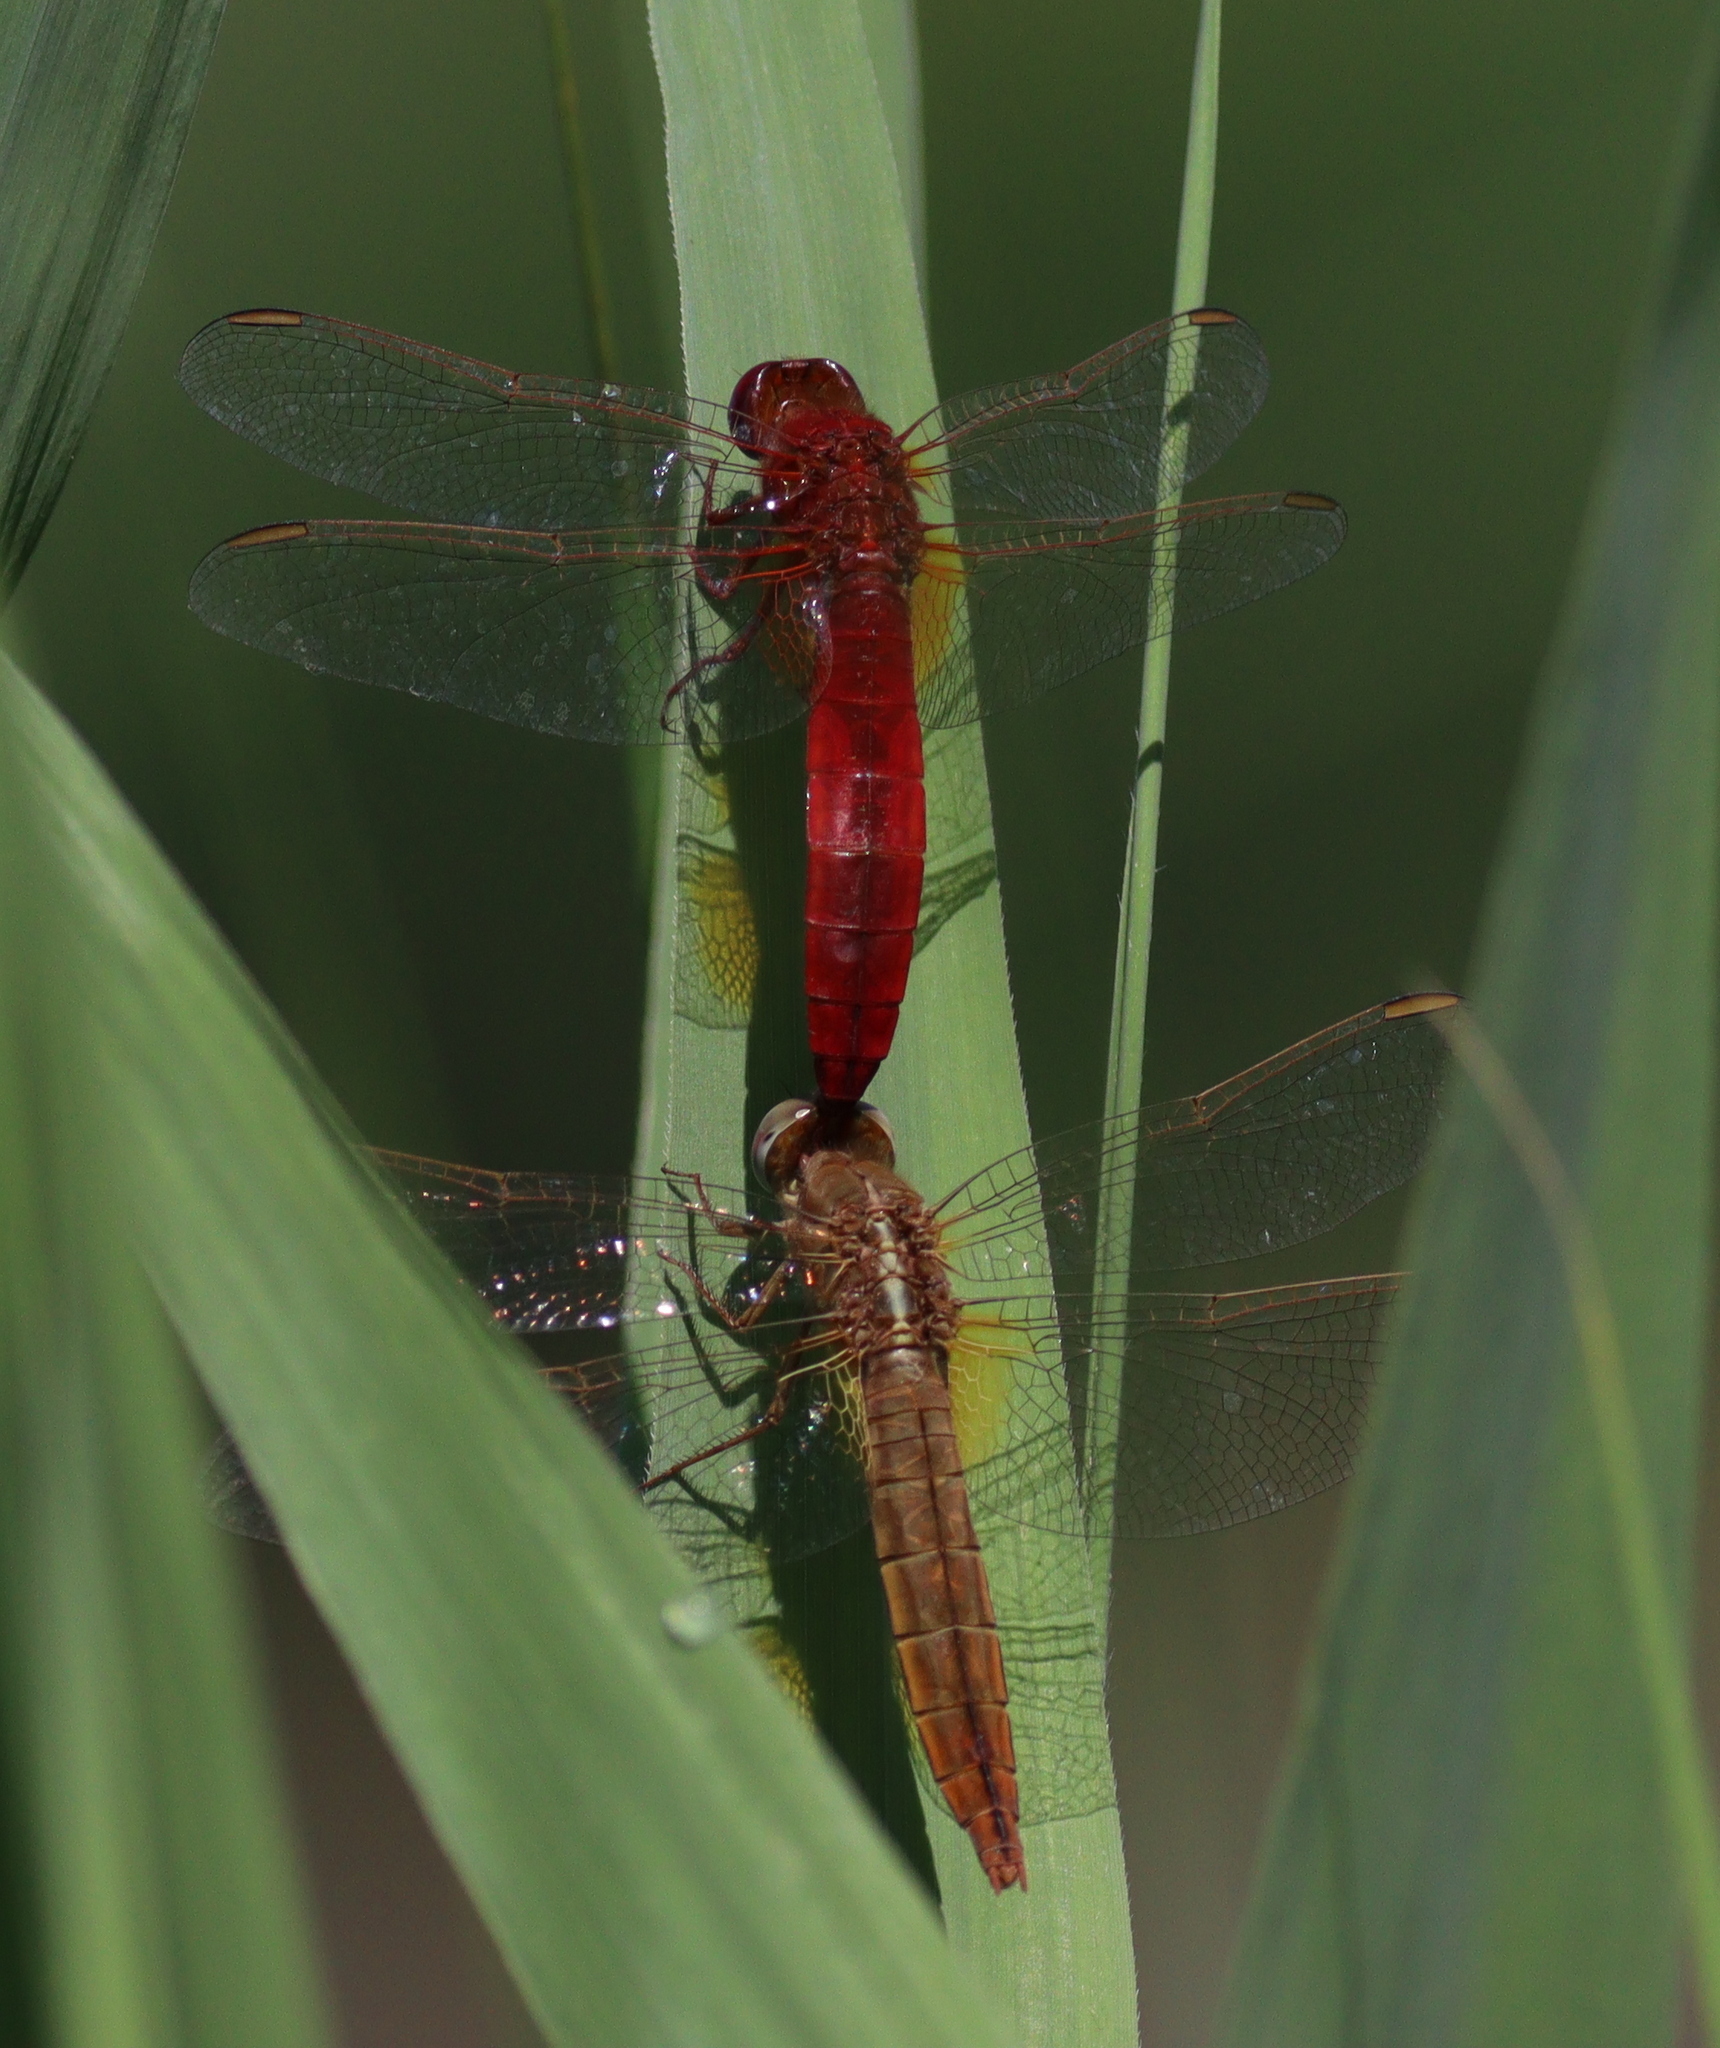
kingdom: Animalia
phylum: Arthropoda
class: Insecta
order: Odonata
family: Libellulidae
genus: Crocothemis
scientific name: Crocothemis erythraea
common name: Scarlet dragonfly
